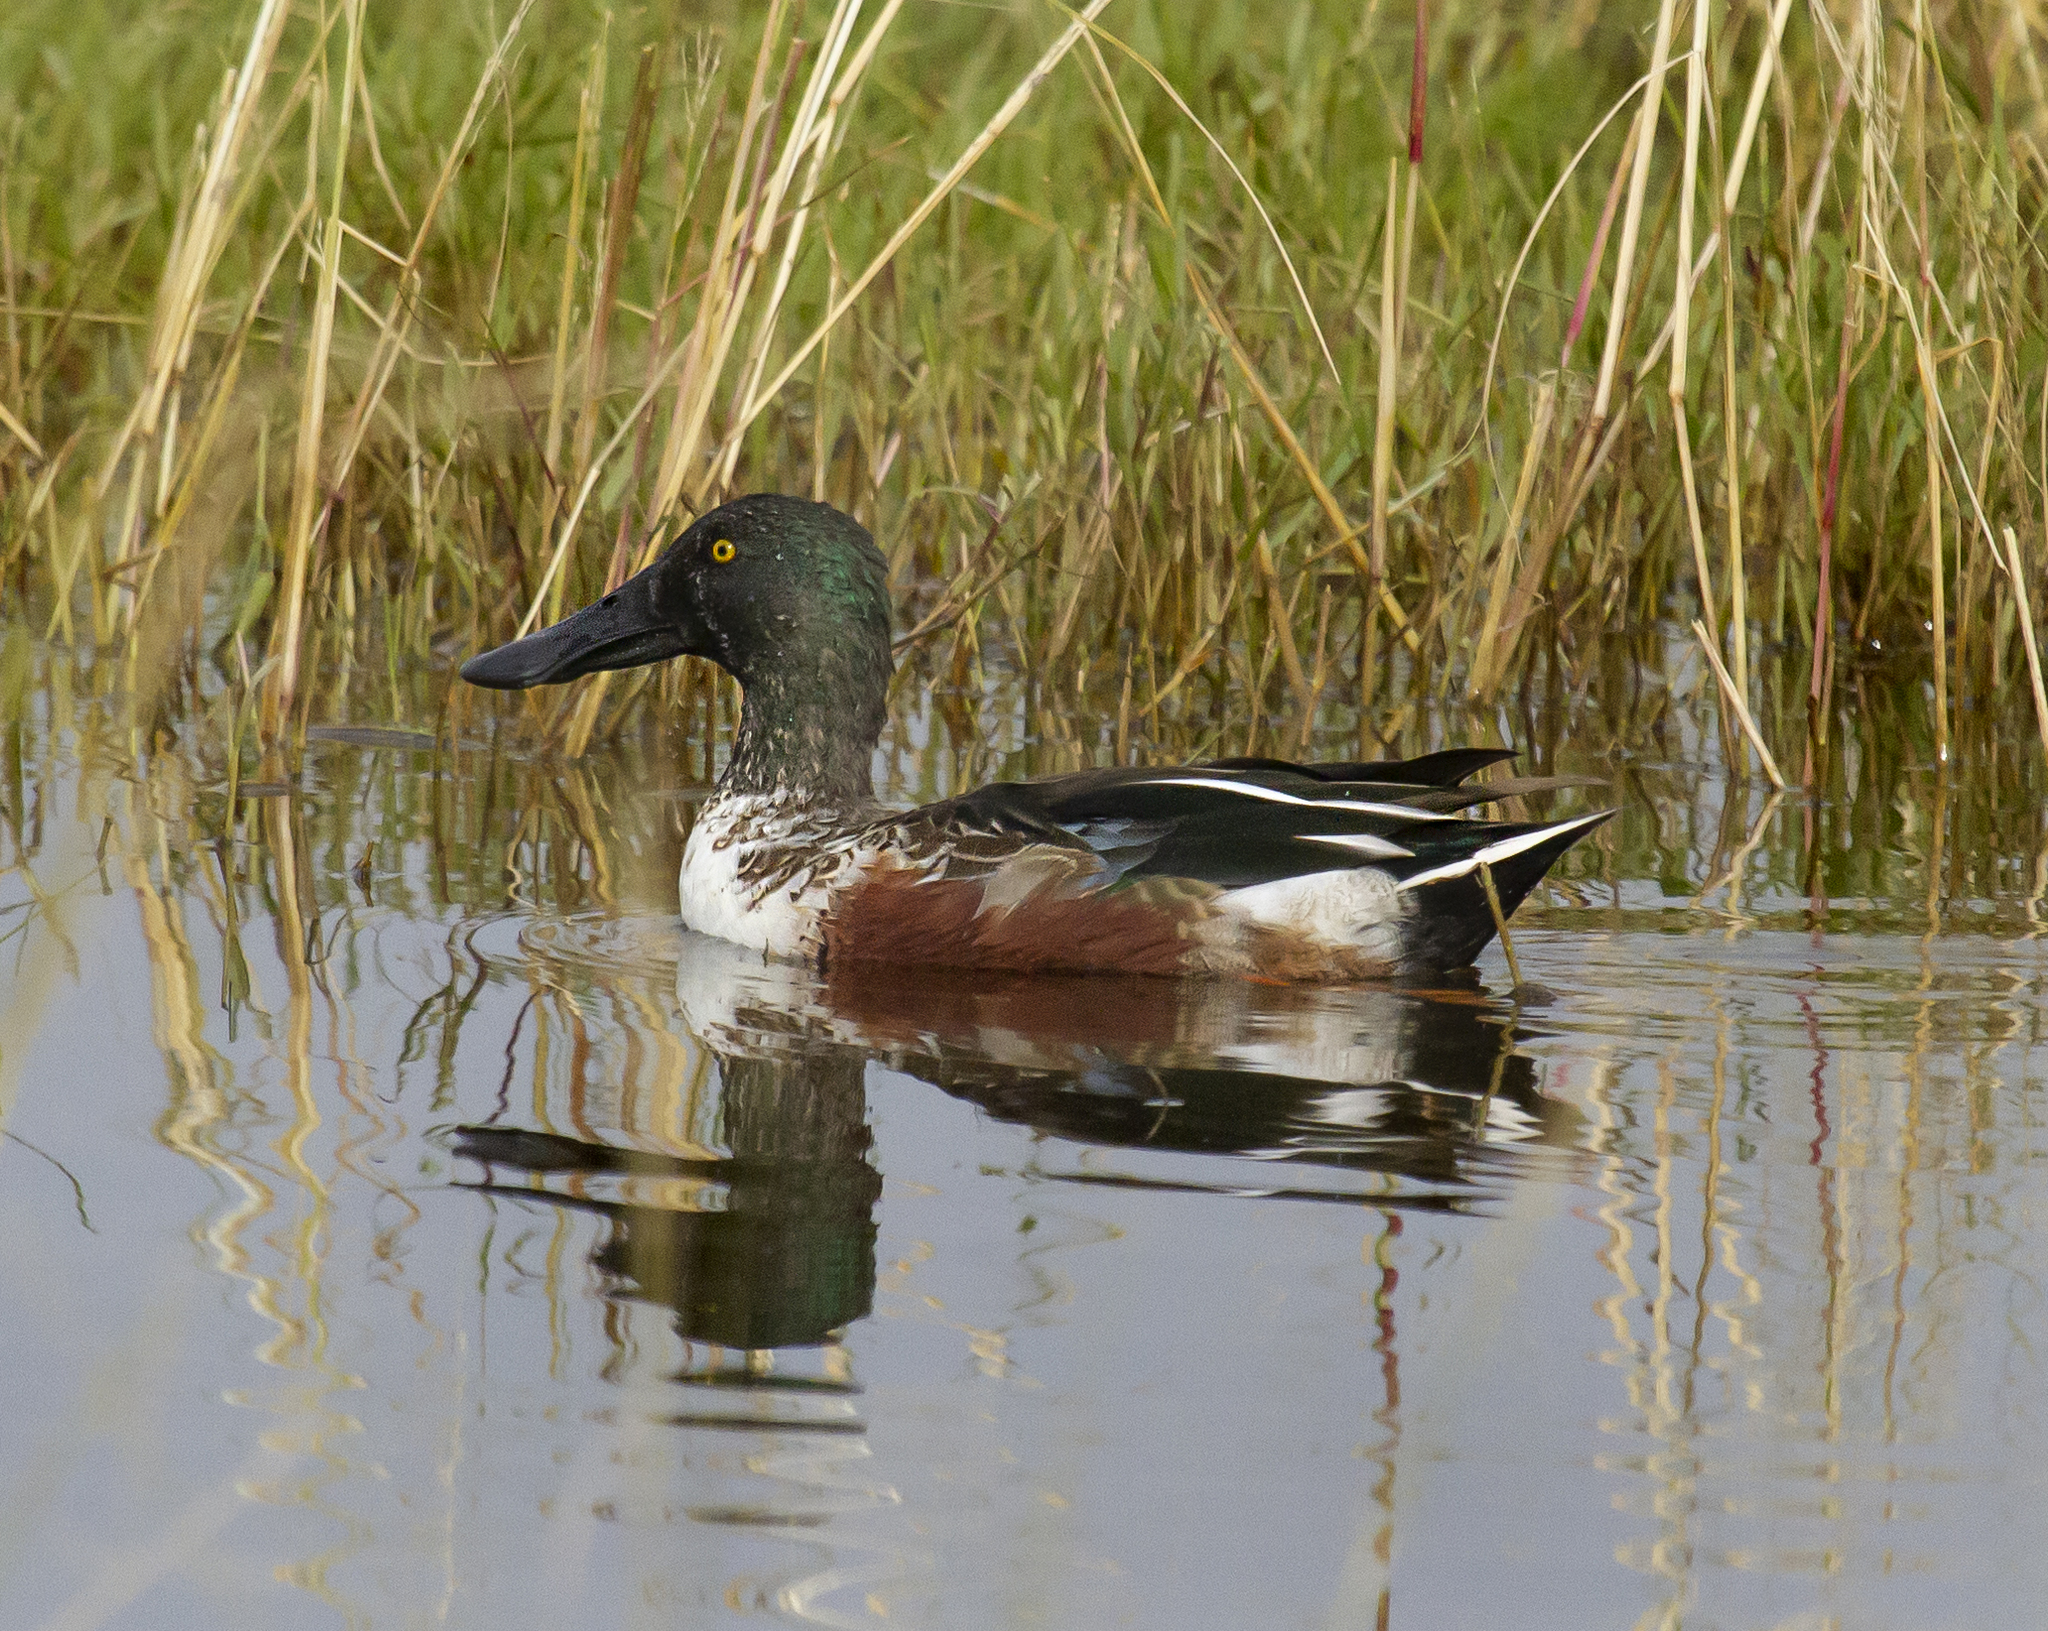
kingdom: Animalia
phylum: Chordata
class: Aves
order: Anseriformes
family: Anatidae
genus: Spatula
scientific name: Spatula clypeata
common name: Northern shoveler
